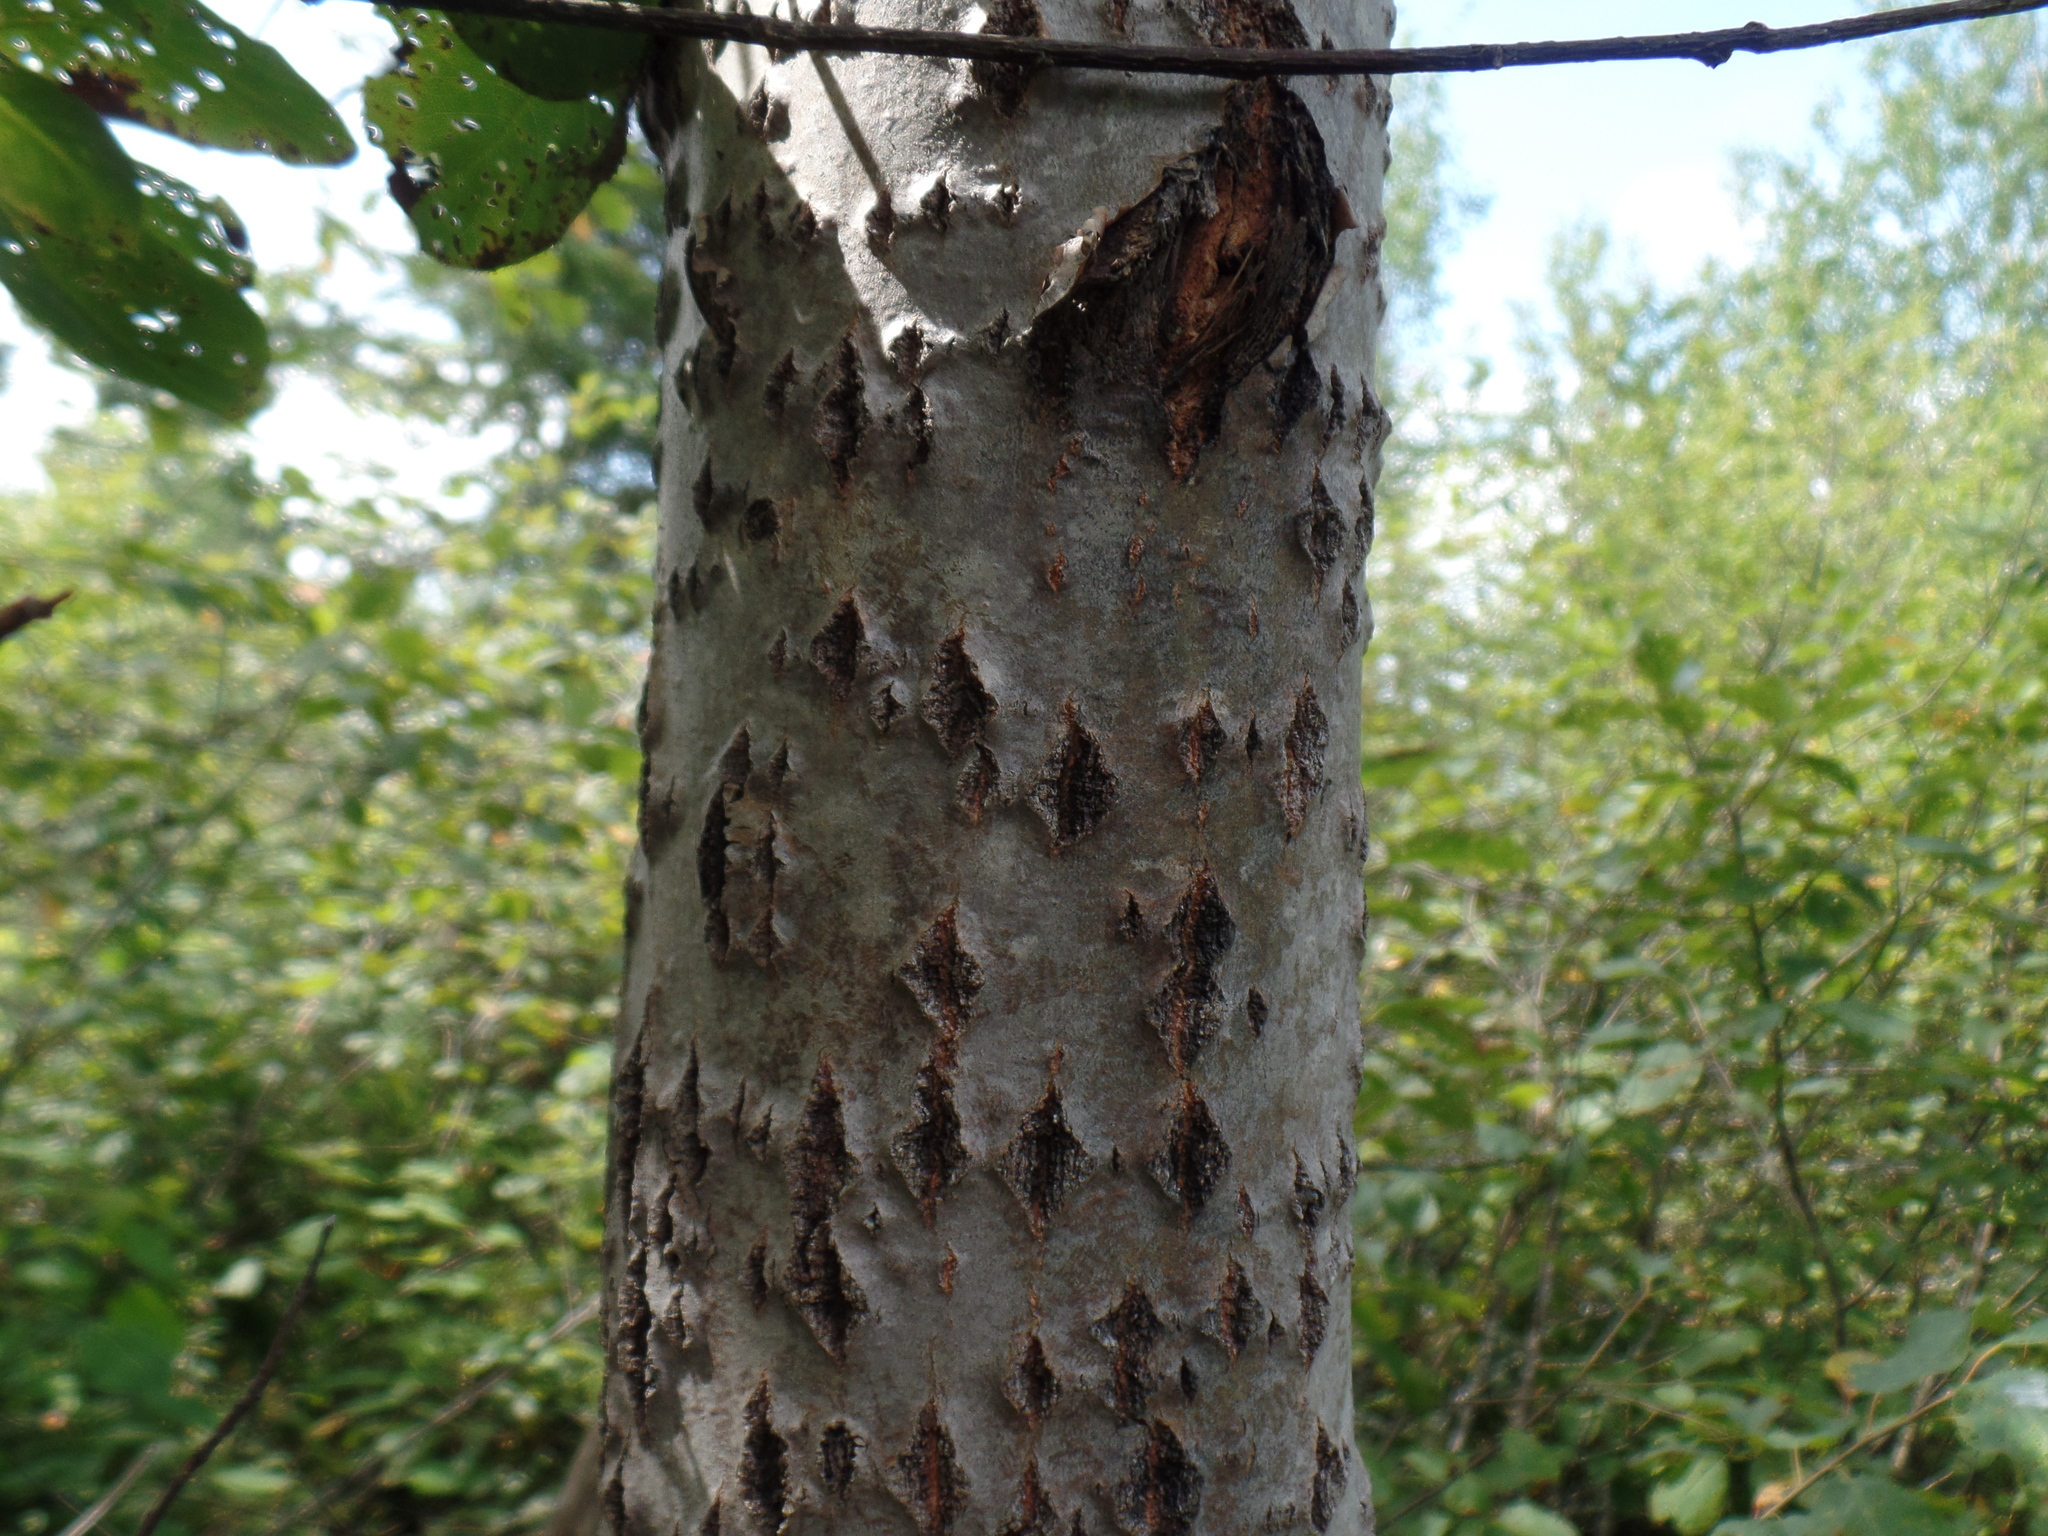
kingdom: Plantae
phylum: Tracheophyta
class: Magnoliopsida
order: Malpighiales
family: Salicaceae
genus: Populus
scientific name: Populus tremuloides
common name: Quaking aspen
